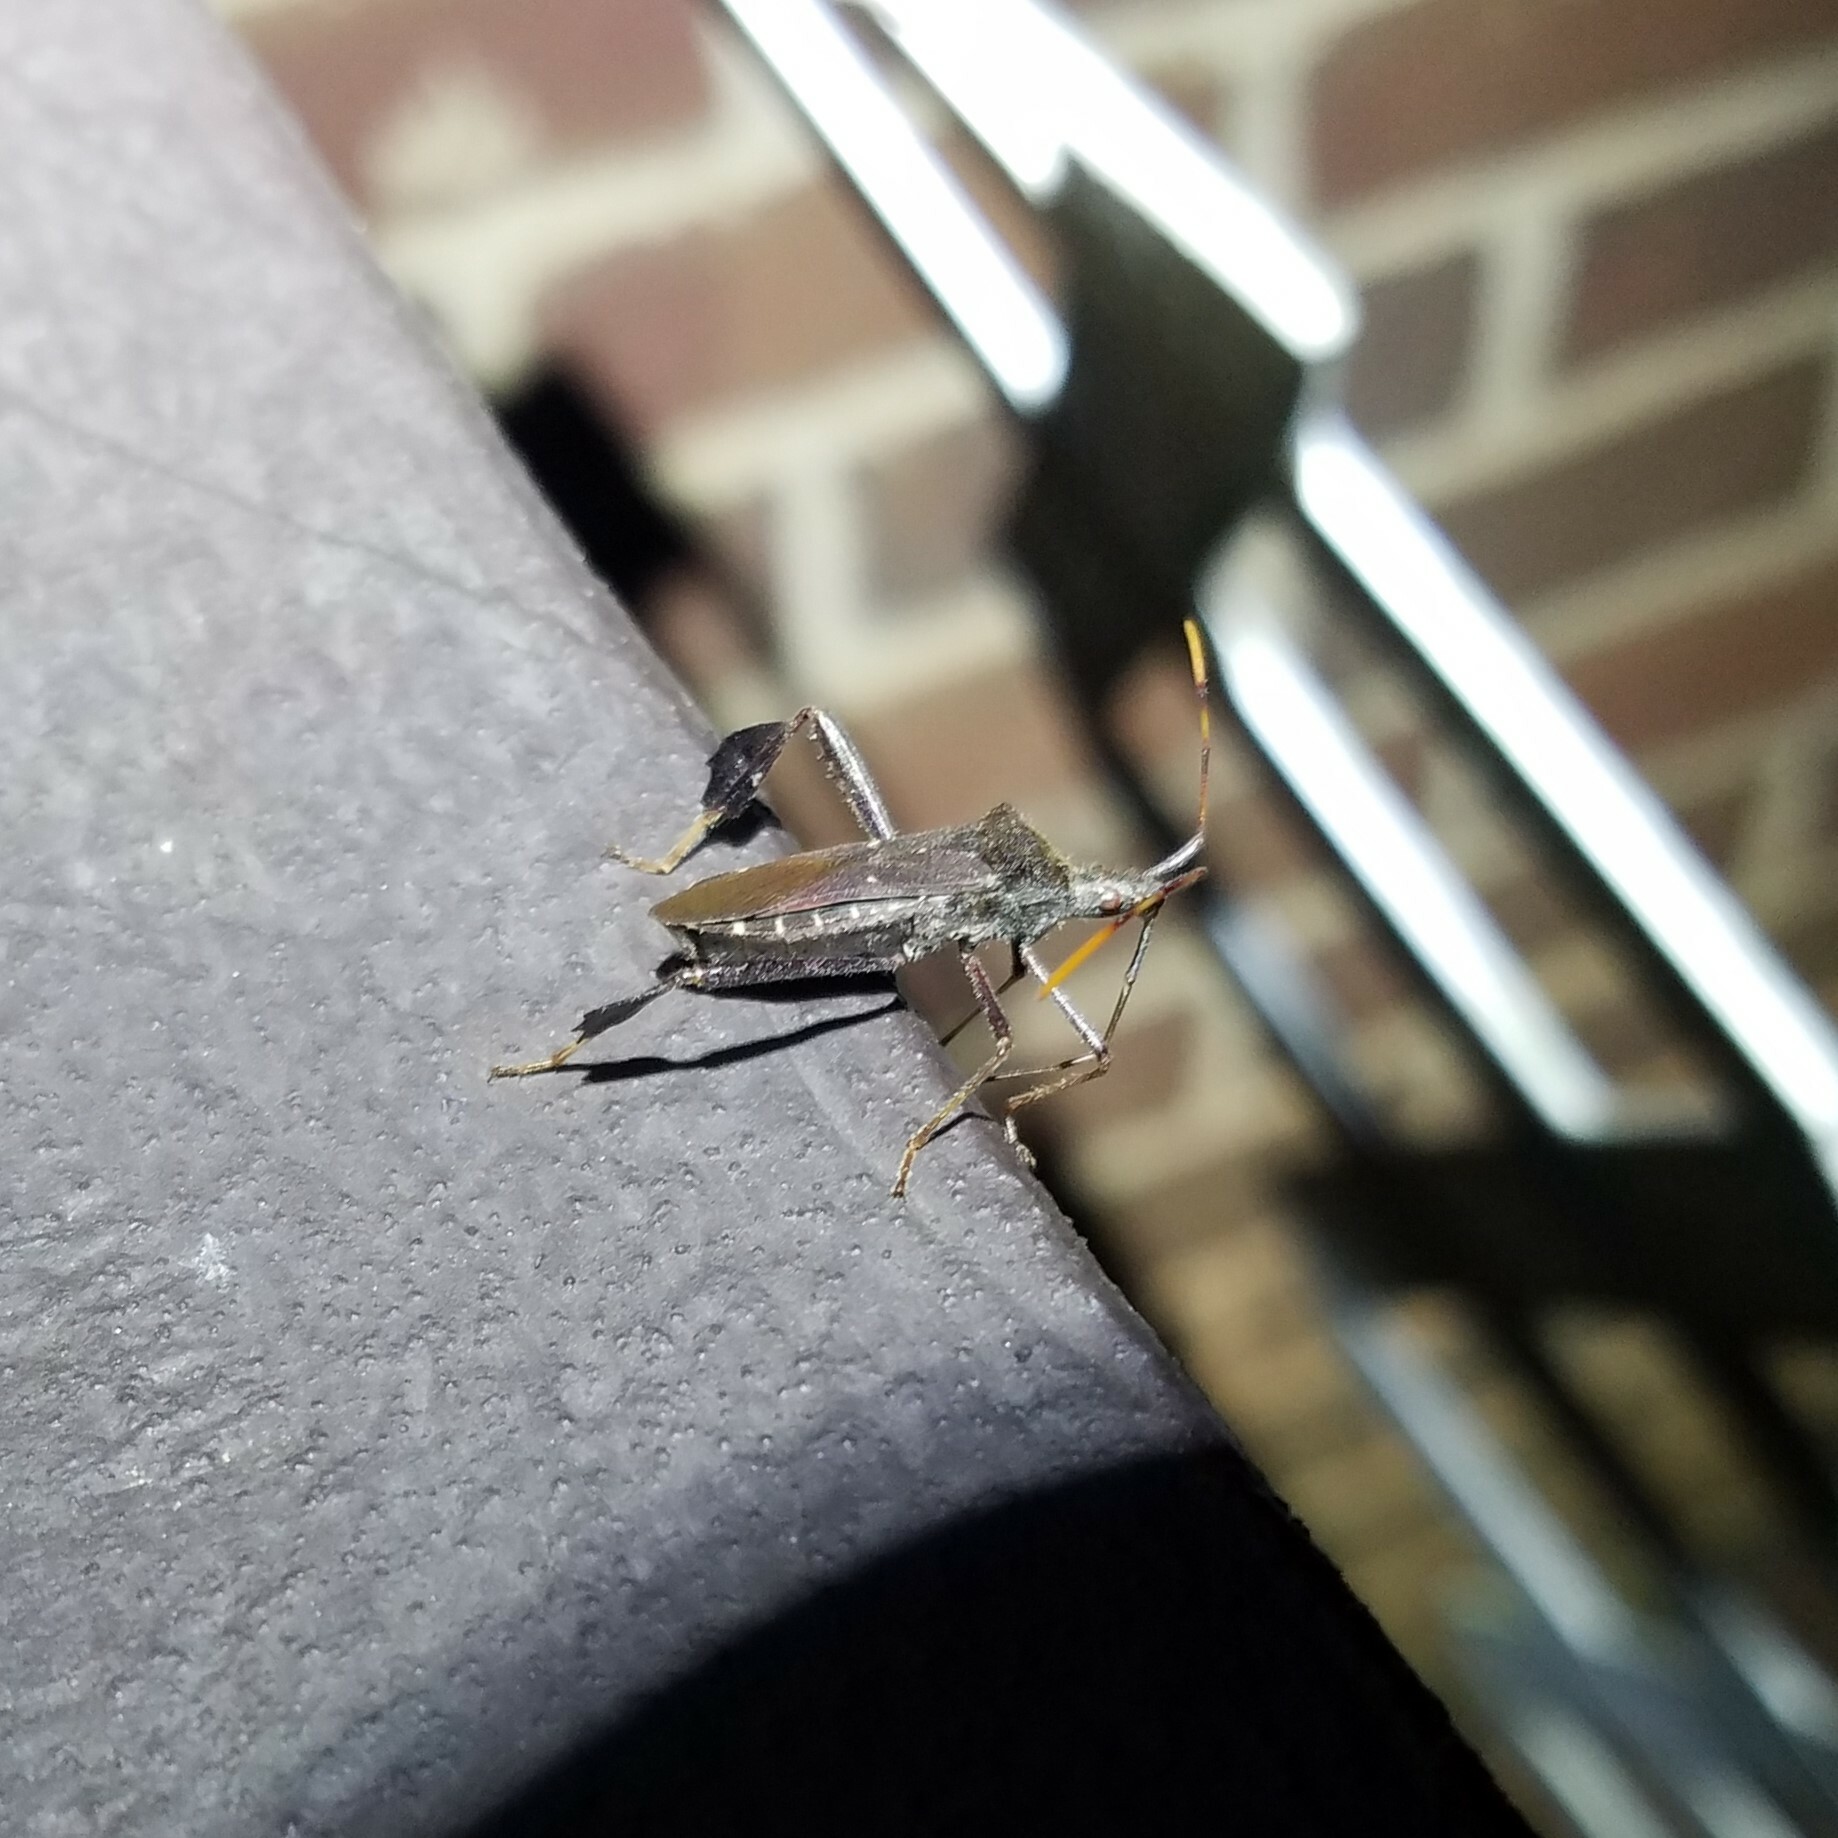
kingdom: Animalia
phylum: Arthropoda
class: Insecta
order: Hemiptera
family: Coreidae
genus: Leptoglossus
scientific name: Leptoglossus oppositus
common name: Northern leaf-footed bug
